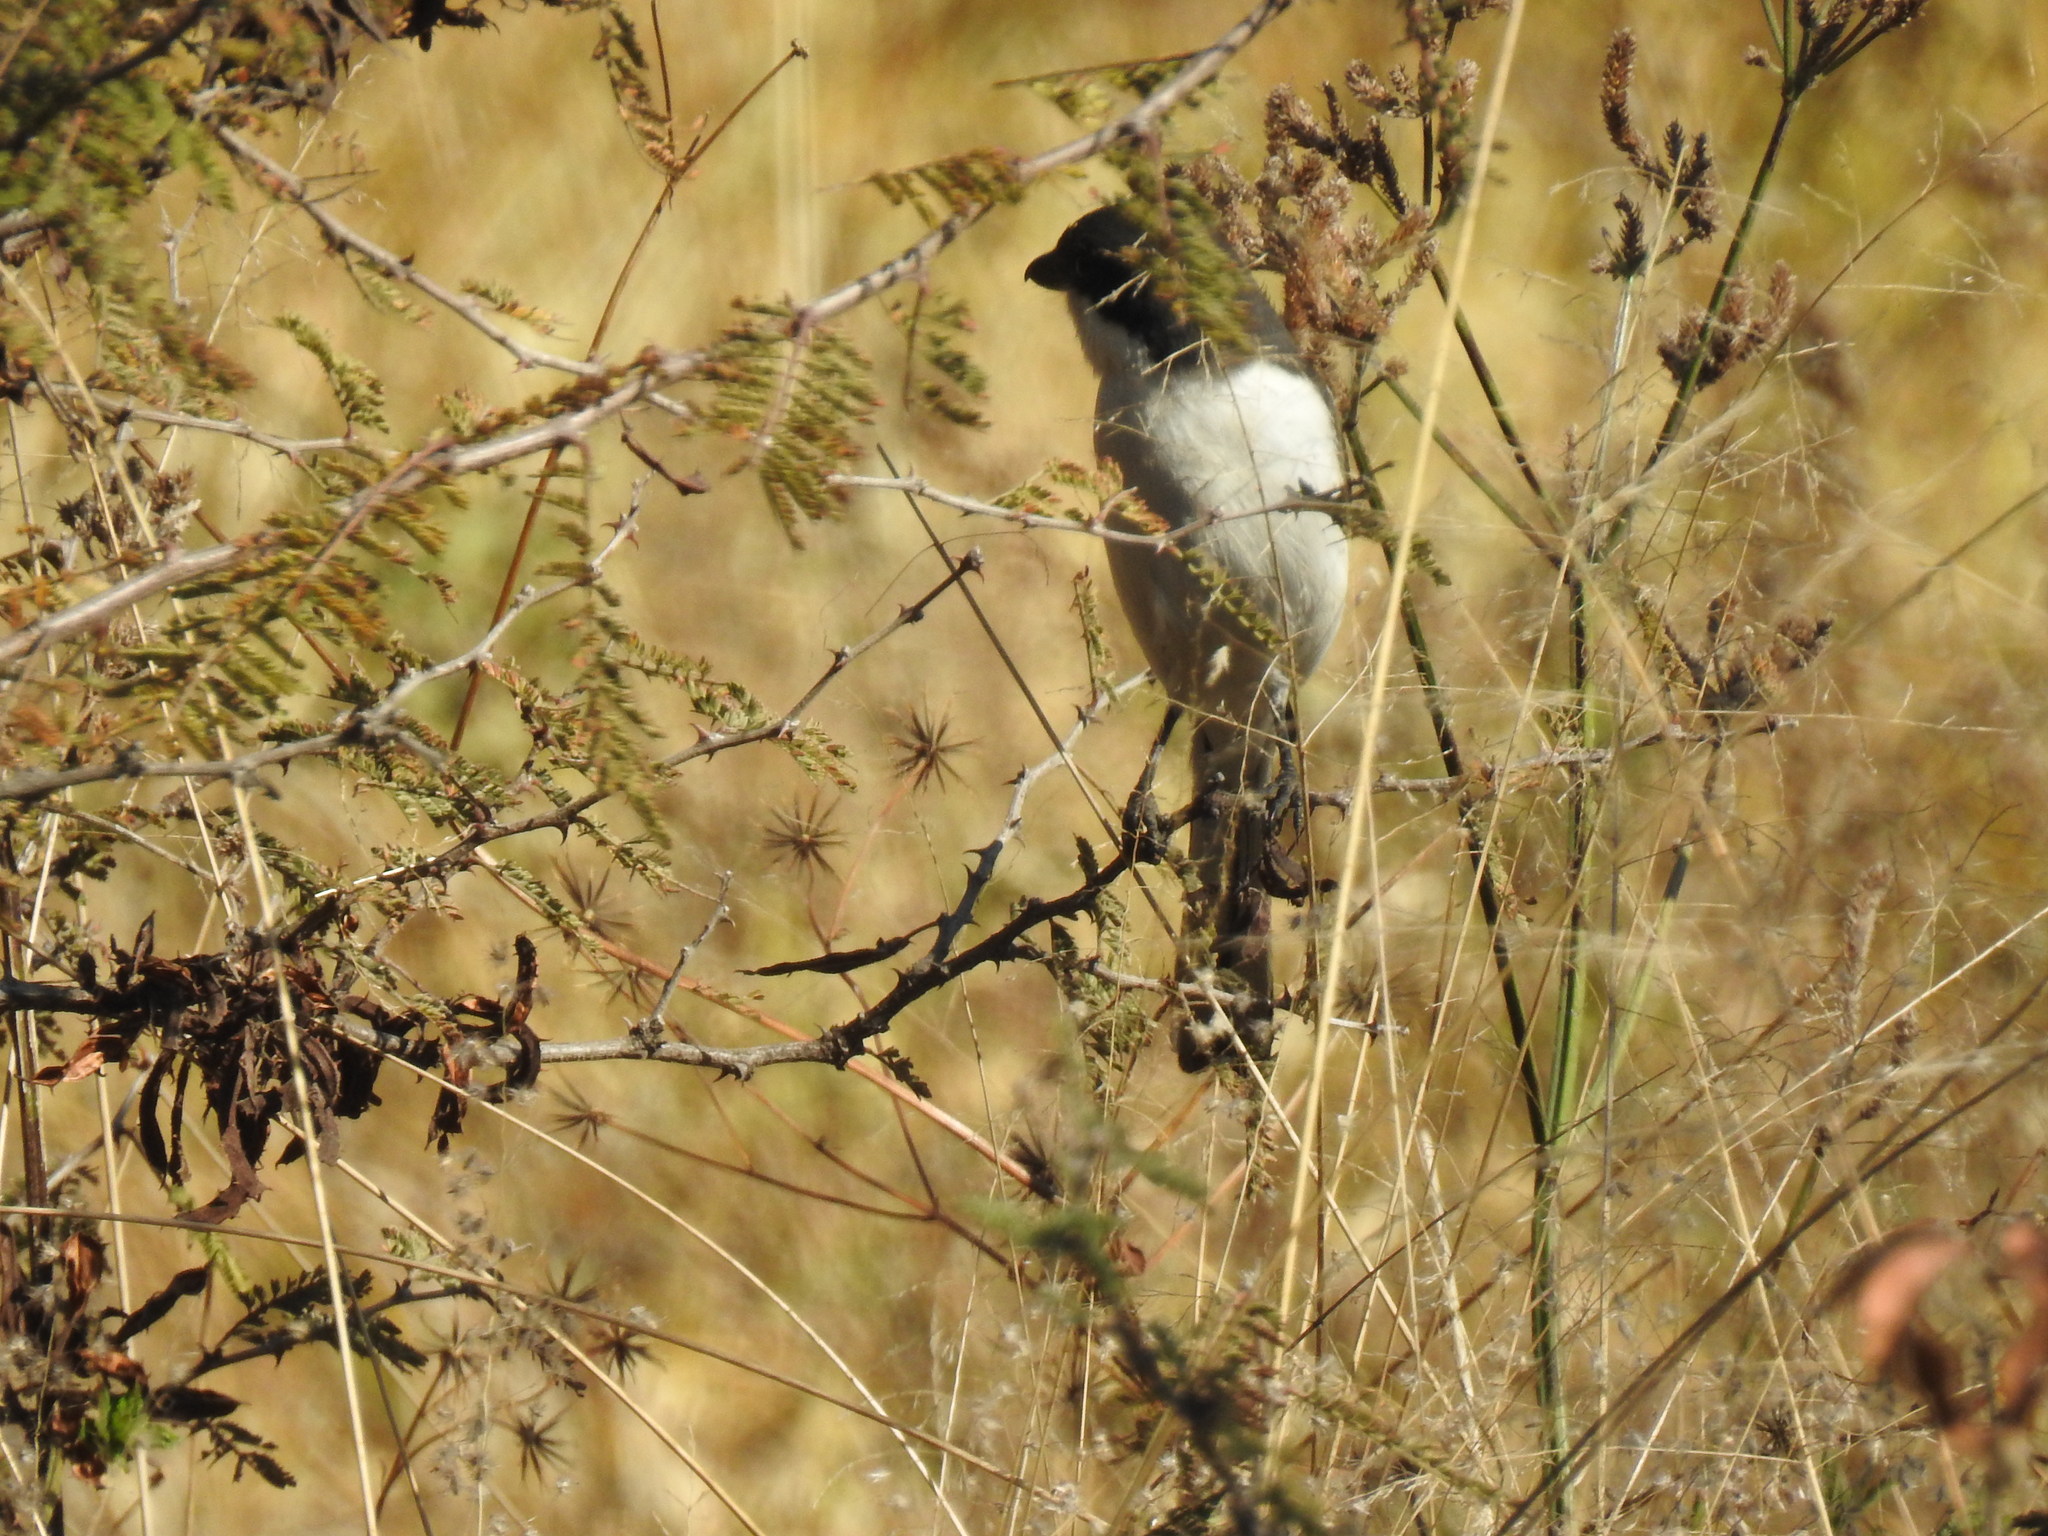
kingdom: Animalia
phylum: Chordata
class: Aves
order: Passeriformes
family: Laniidae
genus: Lanius
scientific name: Lanius collaris
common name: Southern fiscal
